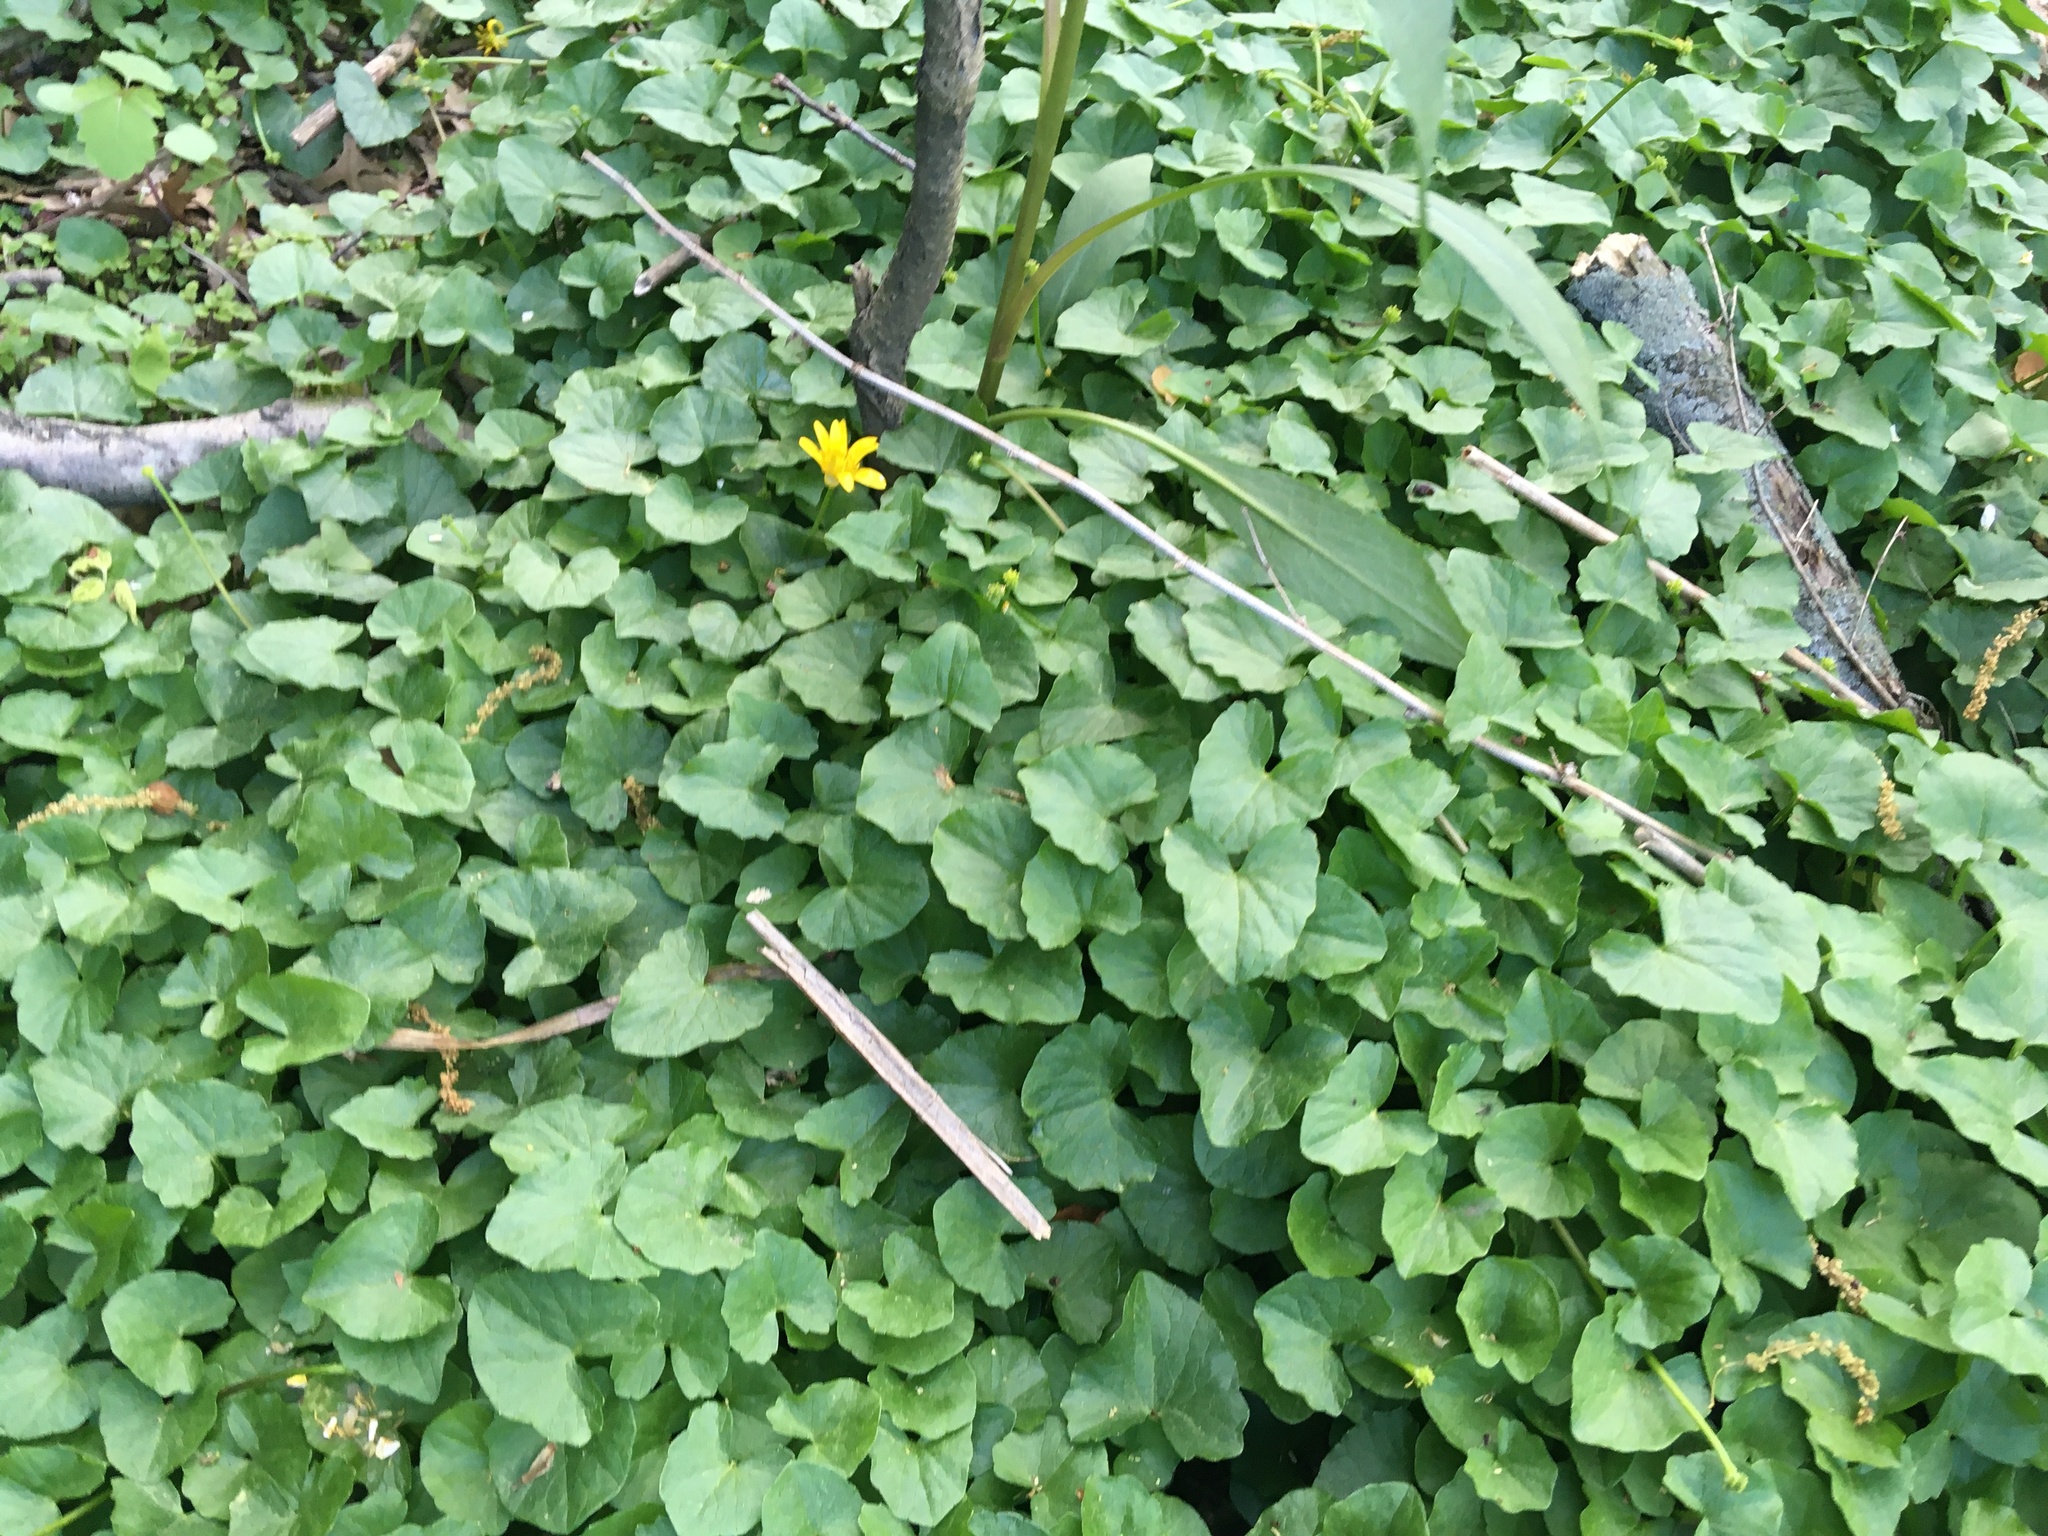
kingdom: Plantae
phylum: Tracheophyta
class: Magnoliopsida
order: Ranunculales
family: Ranunculaceae
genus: Ficaria
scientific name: Ficaria verna
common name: Lesser celandine
